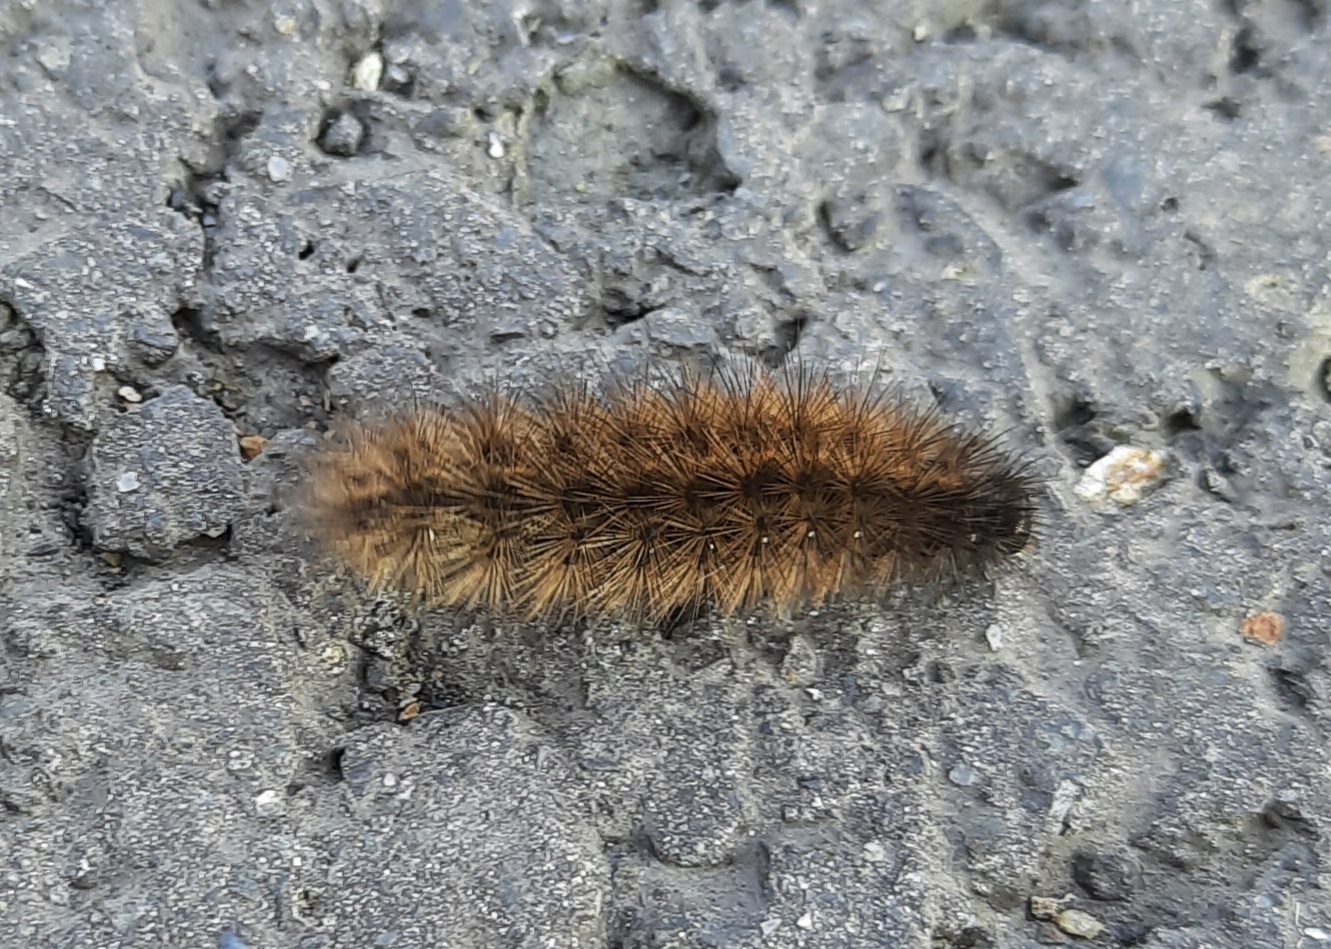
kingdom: Animalia
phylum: Arthropoda
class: Insecta
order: Lepidoptera
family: Erebidae
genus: Phragmatobia
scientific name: Phragmatobia fuliginosa
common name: Ruby tiger
